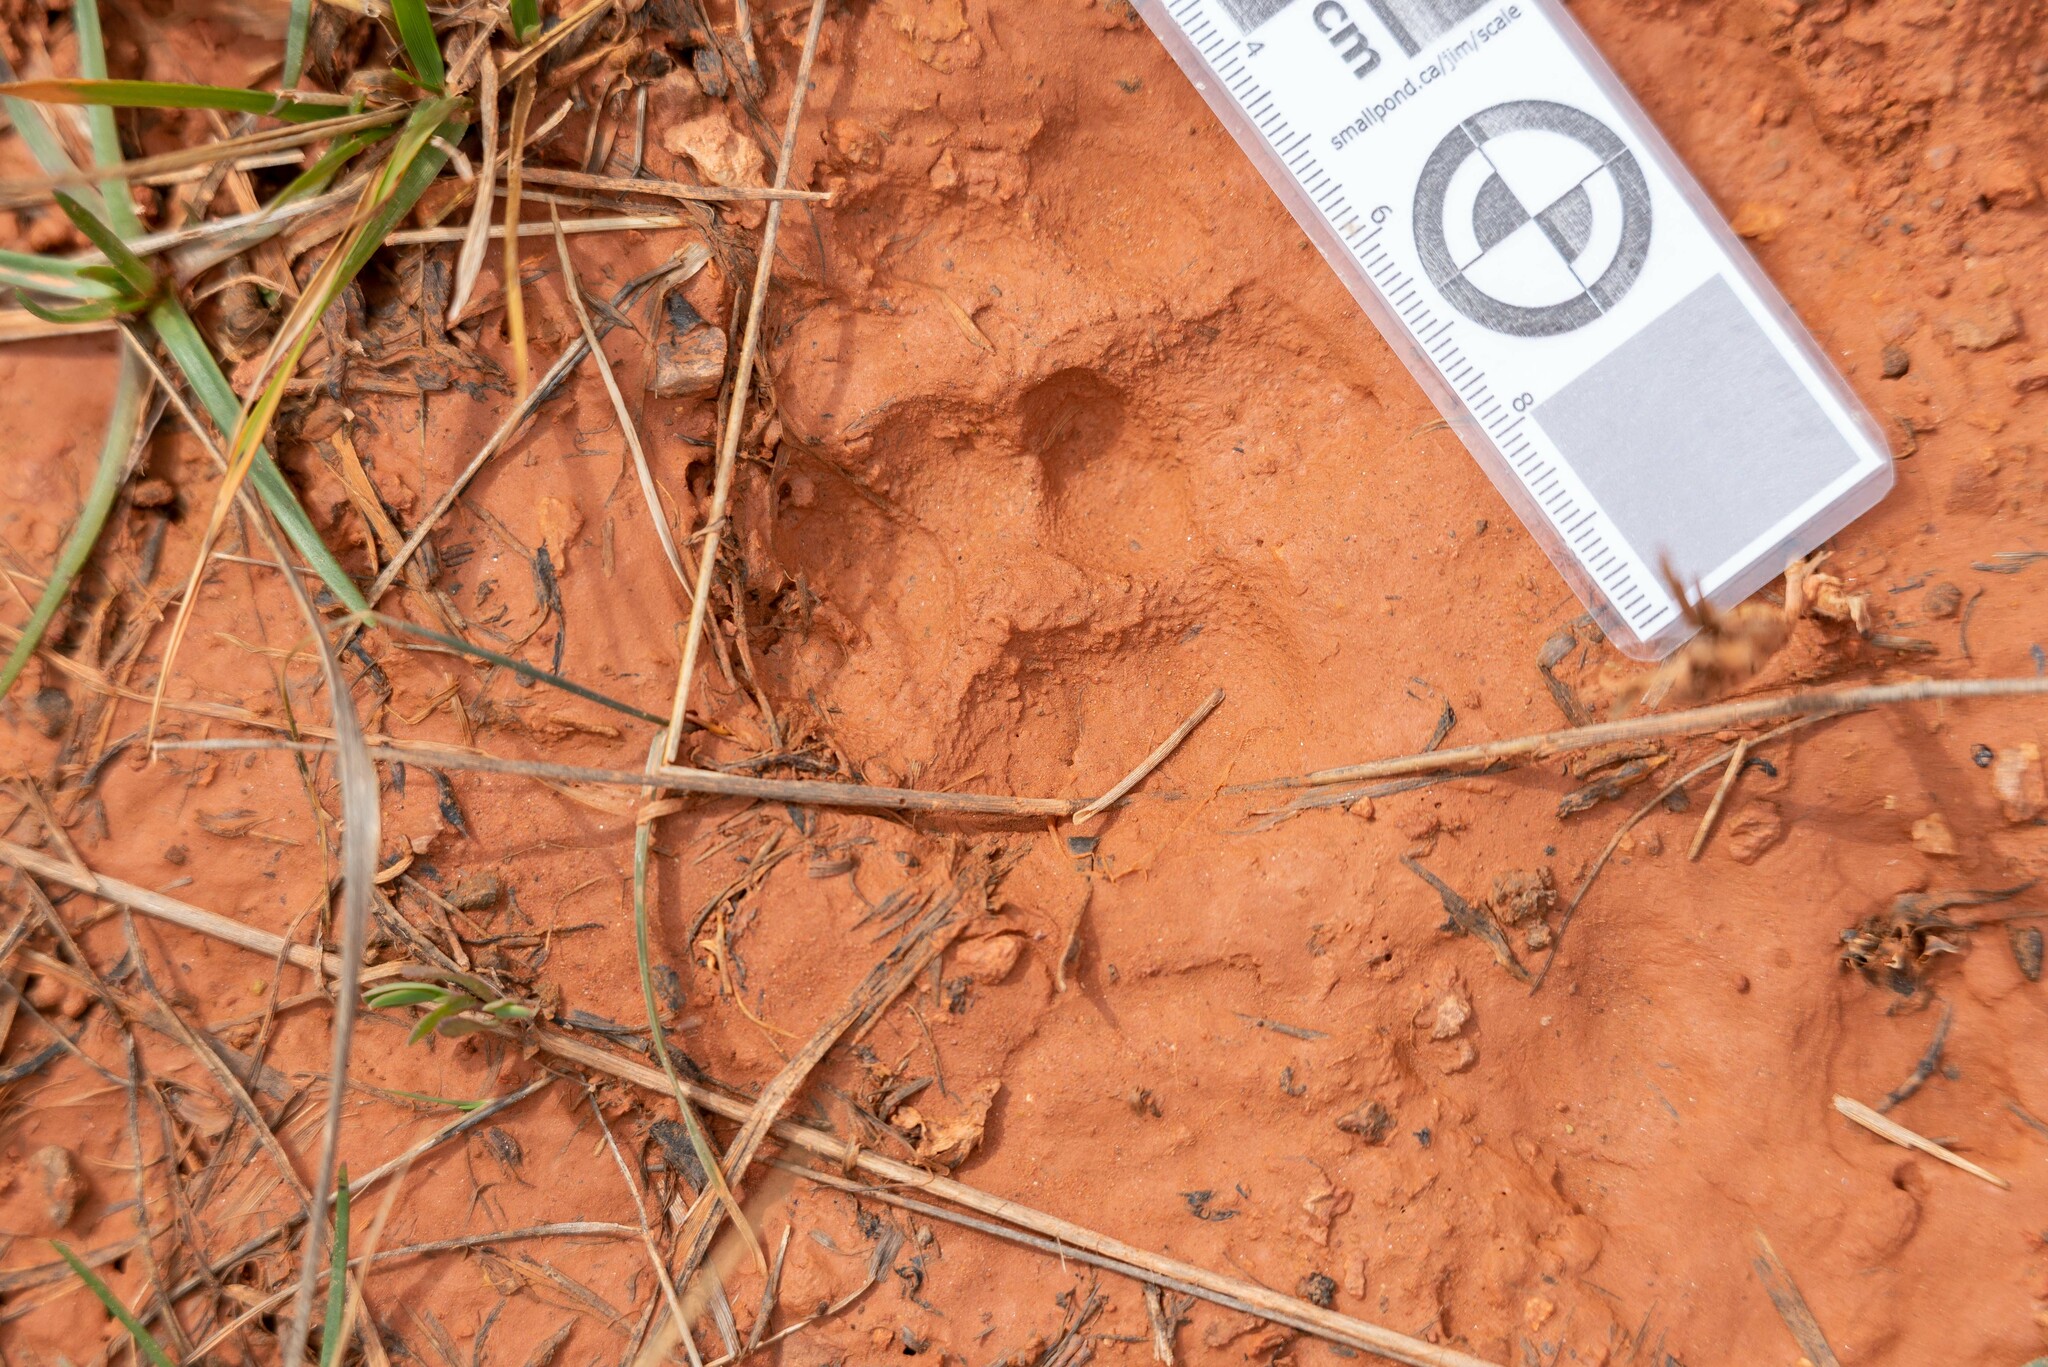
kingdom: Animalia
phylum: Chordata
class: Mammalia
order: Carnivora
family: Mustelidae
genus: Meles
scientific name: Meles meles
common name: Eurasian badger
